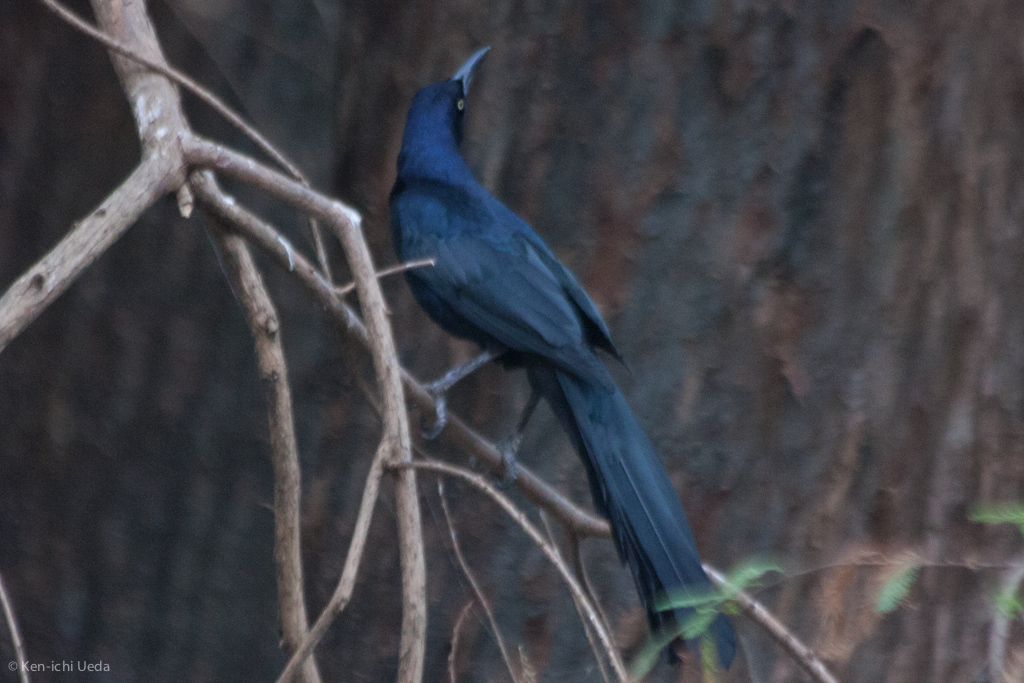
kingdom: Animalia
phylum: Chordata
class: Aves
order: Passeriformes
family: Icteridae
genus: Quiscalus
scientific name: Quiscalus mexicanus
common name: Great-tailed grackle
